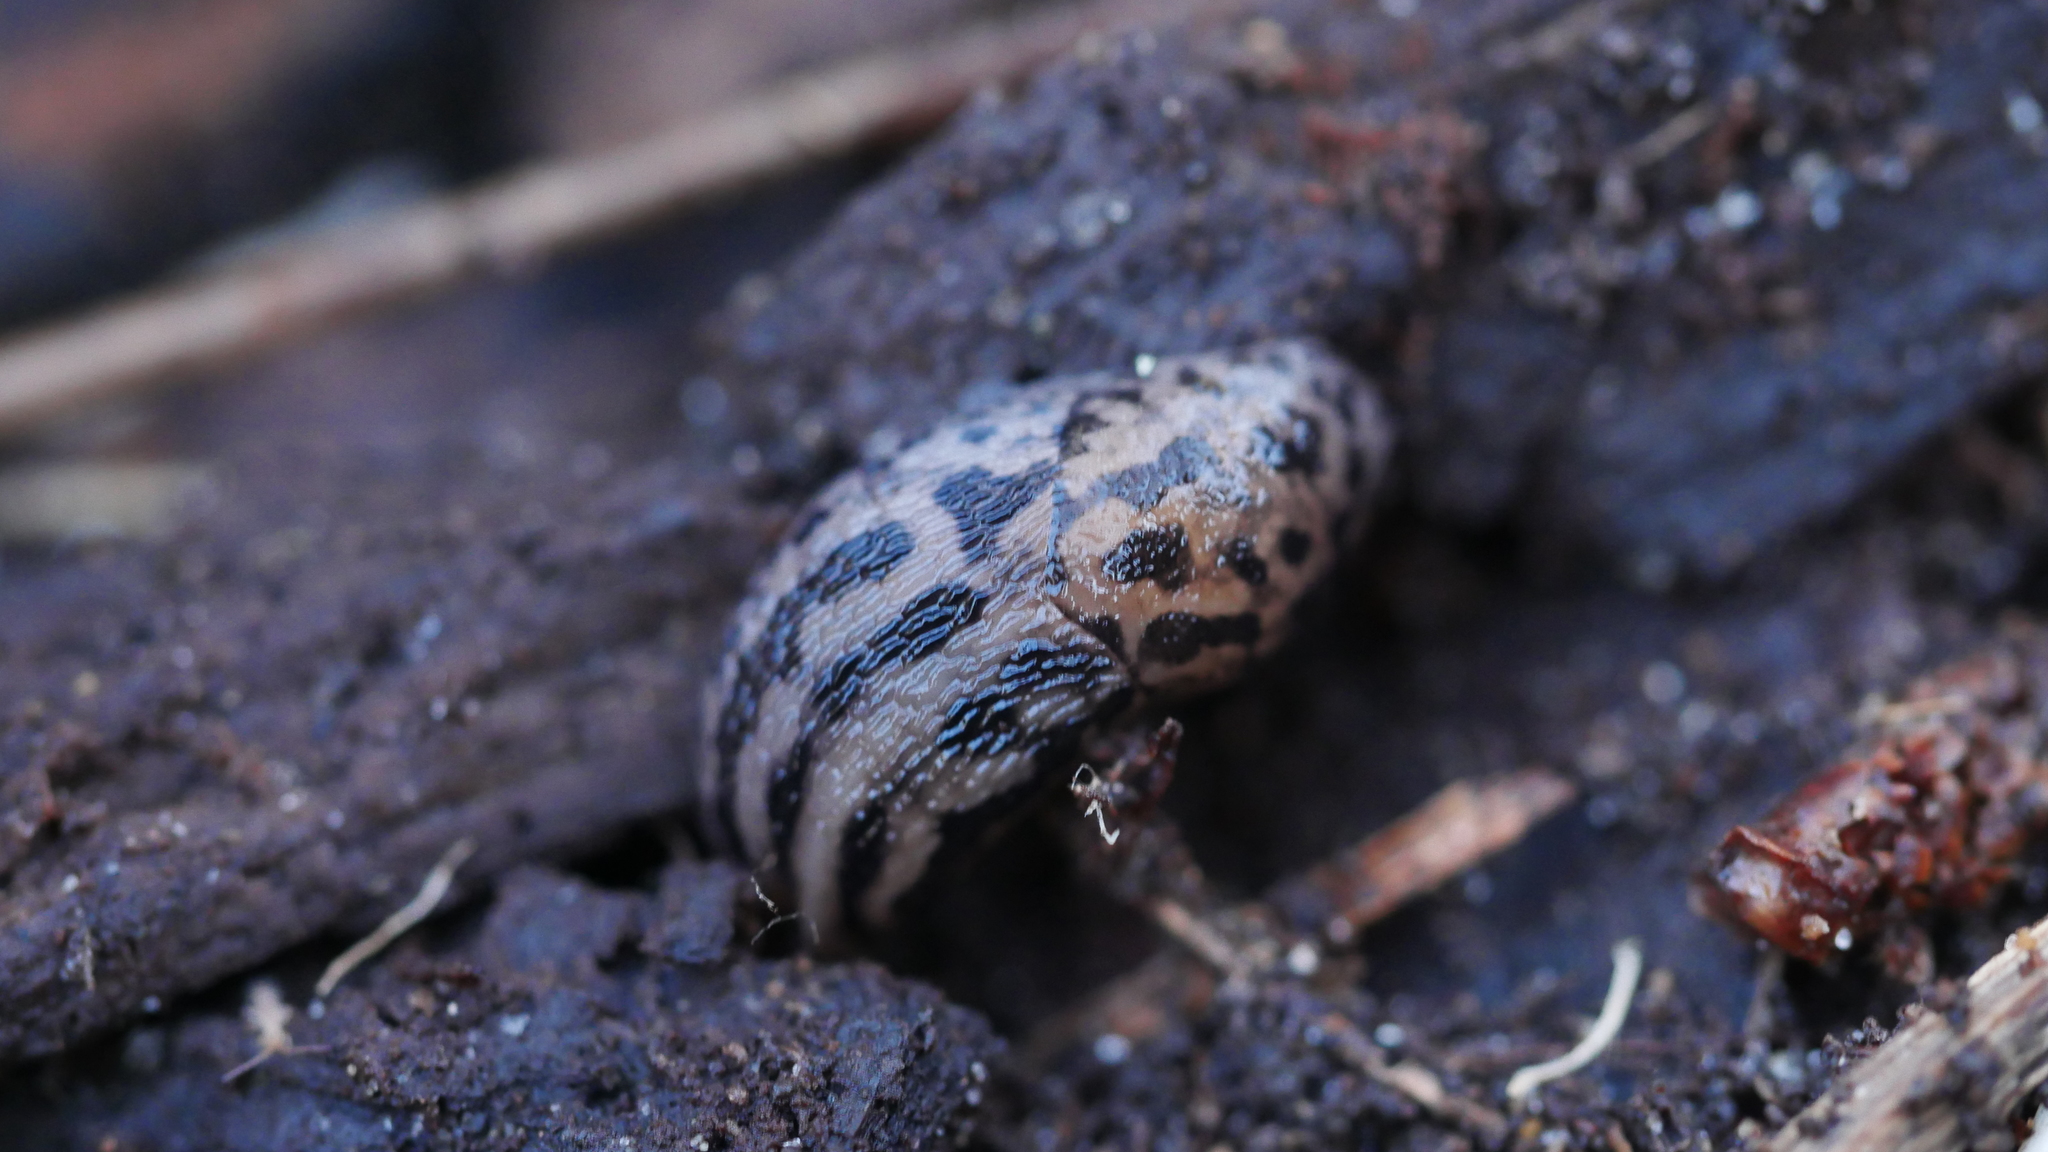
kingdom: Animalia
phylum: Mollusca
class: Gastropoda
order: Stylommatophora
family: Limacidae
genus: Limax
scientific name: Limax maximus
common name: Great grey slug
